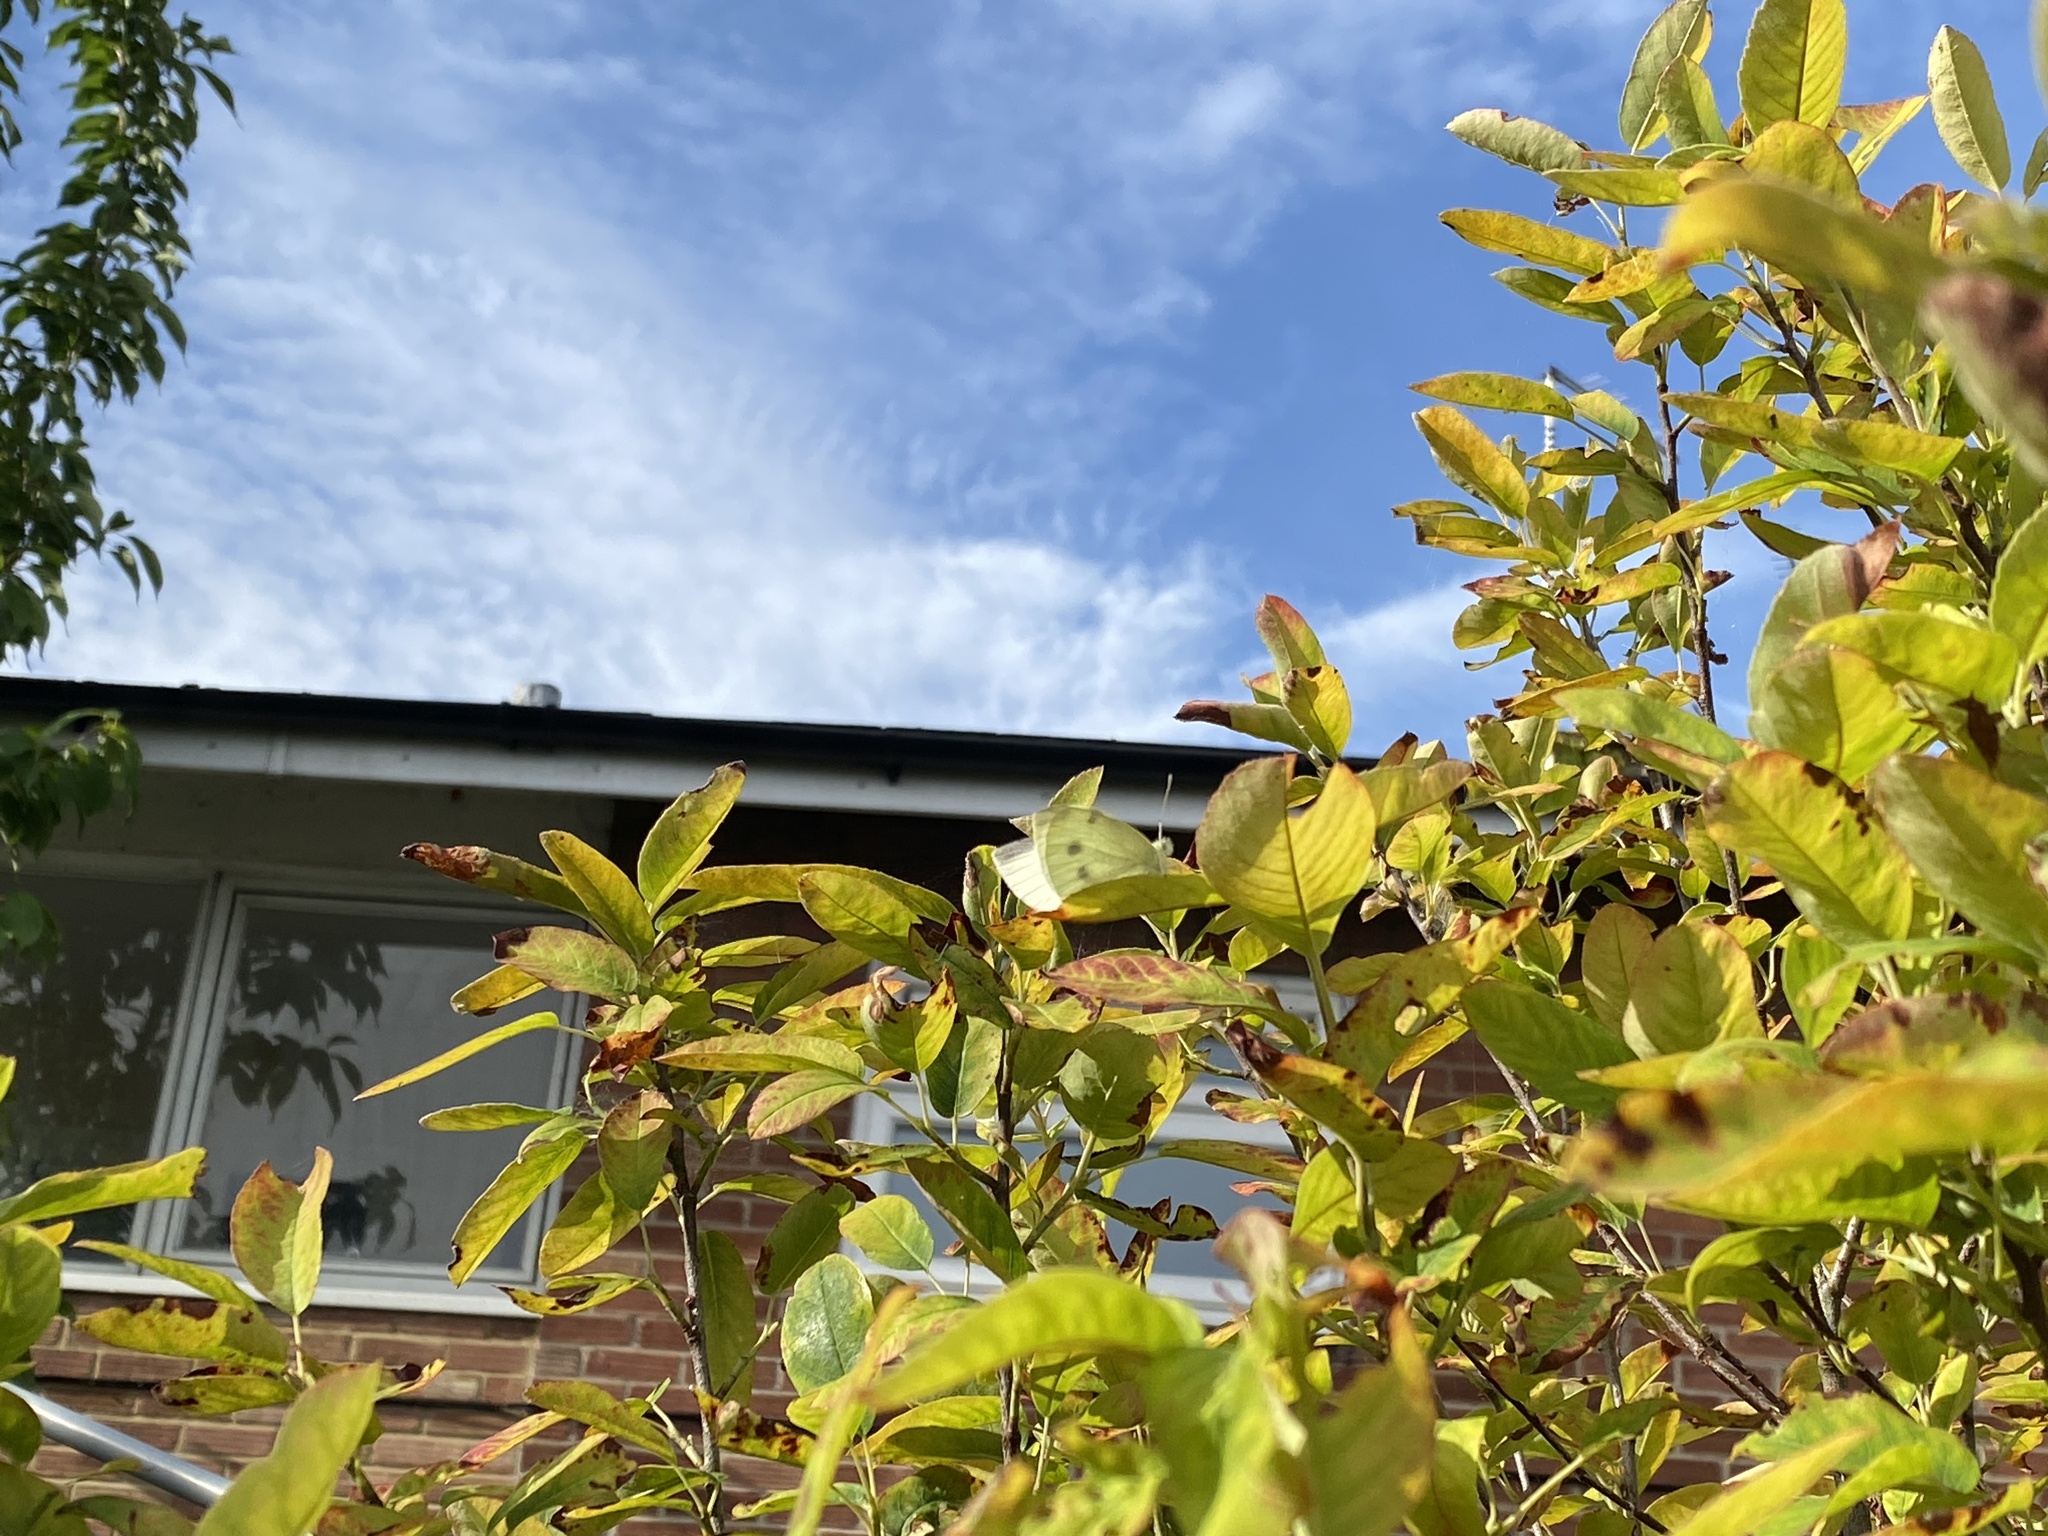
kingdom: Animalia
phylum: Arthropoda
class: Insecta
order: Lepidoptera
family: Pieridae
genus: Pieris
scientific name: Pieris rapae
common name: Small white
